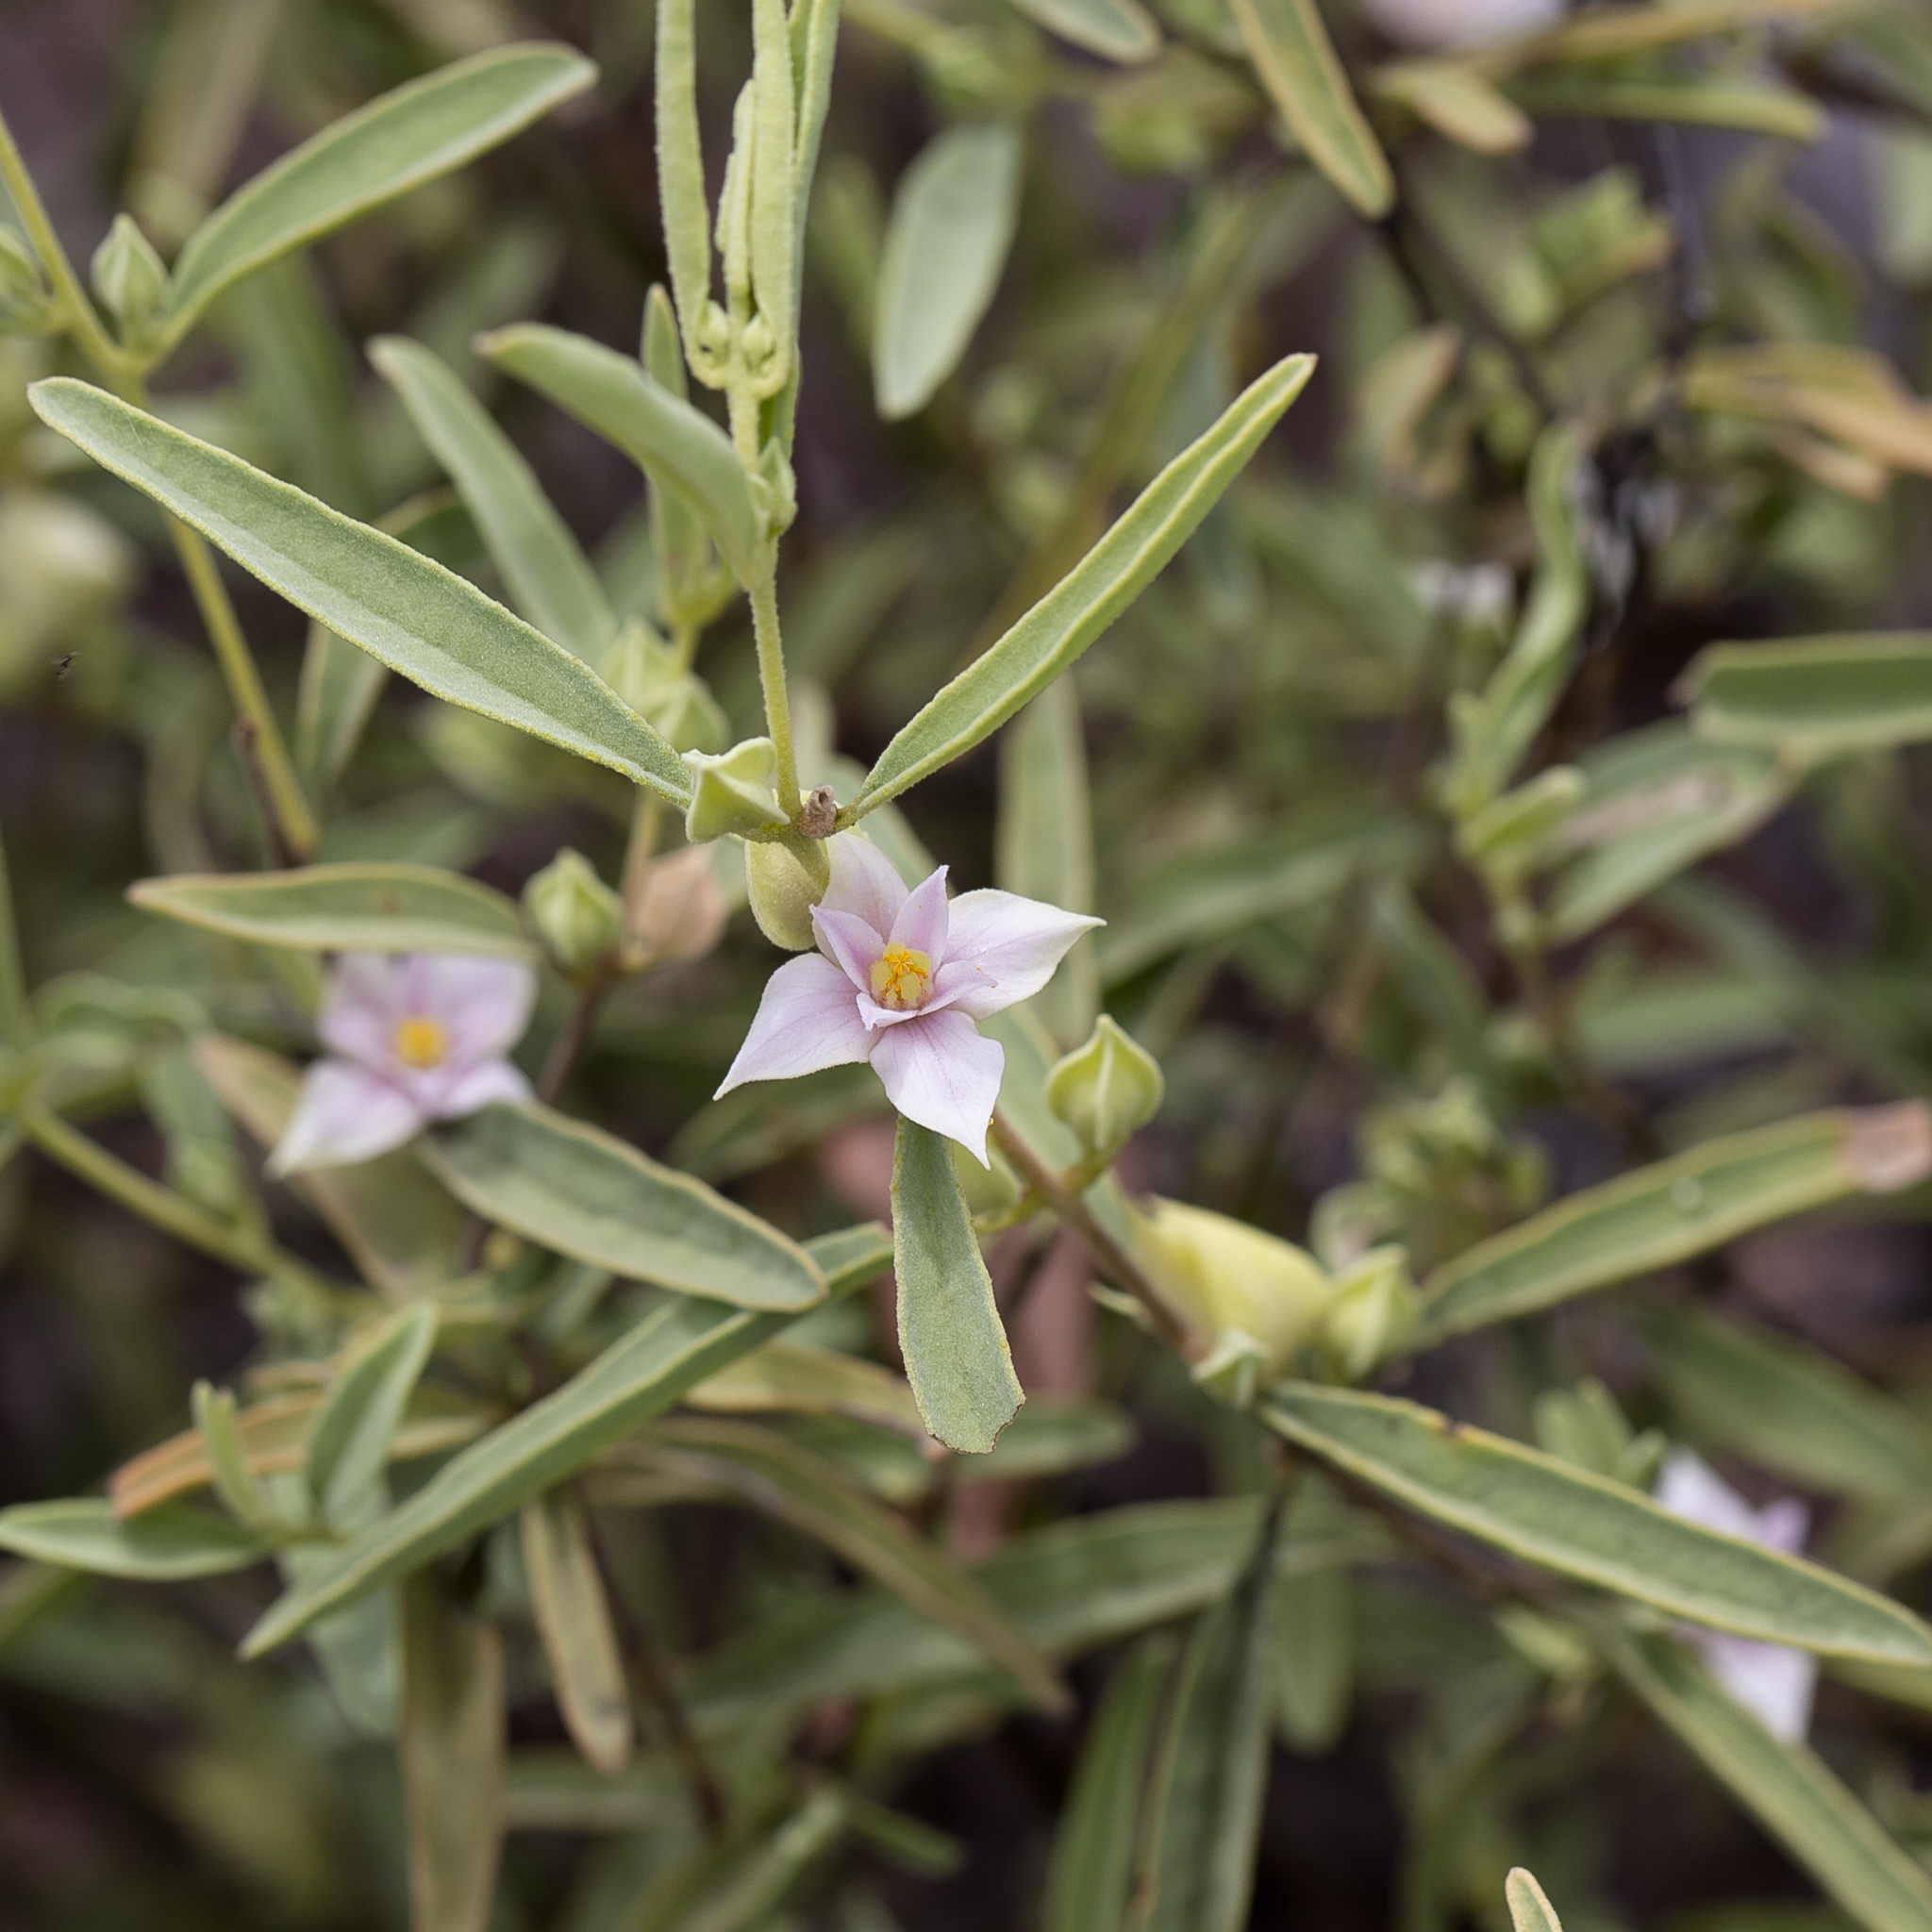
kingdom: Plantae
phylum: Tracheophyta
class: Magnoliopsida
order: Sapindales
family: Rutaceae
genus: Boronia
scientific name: Boronia grandisepala
